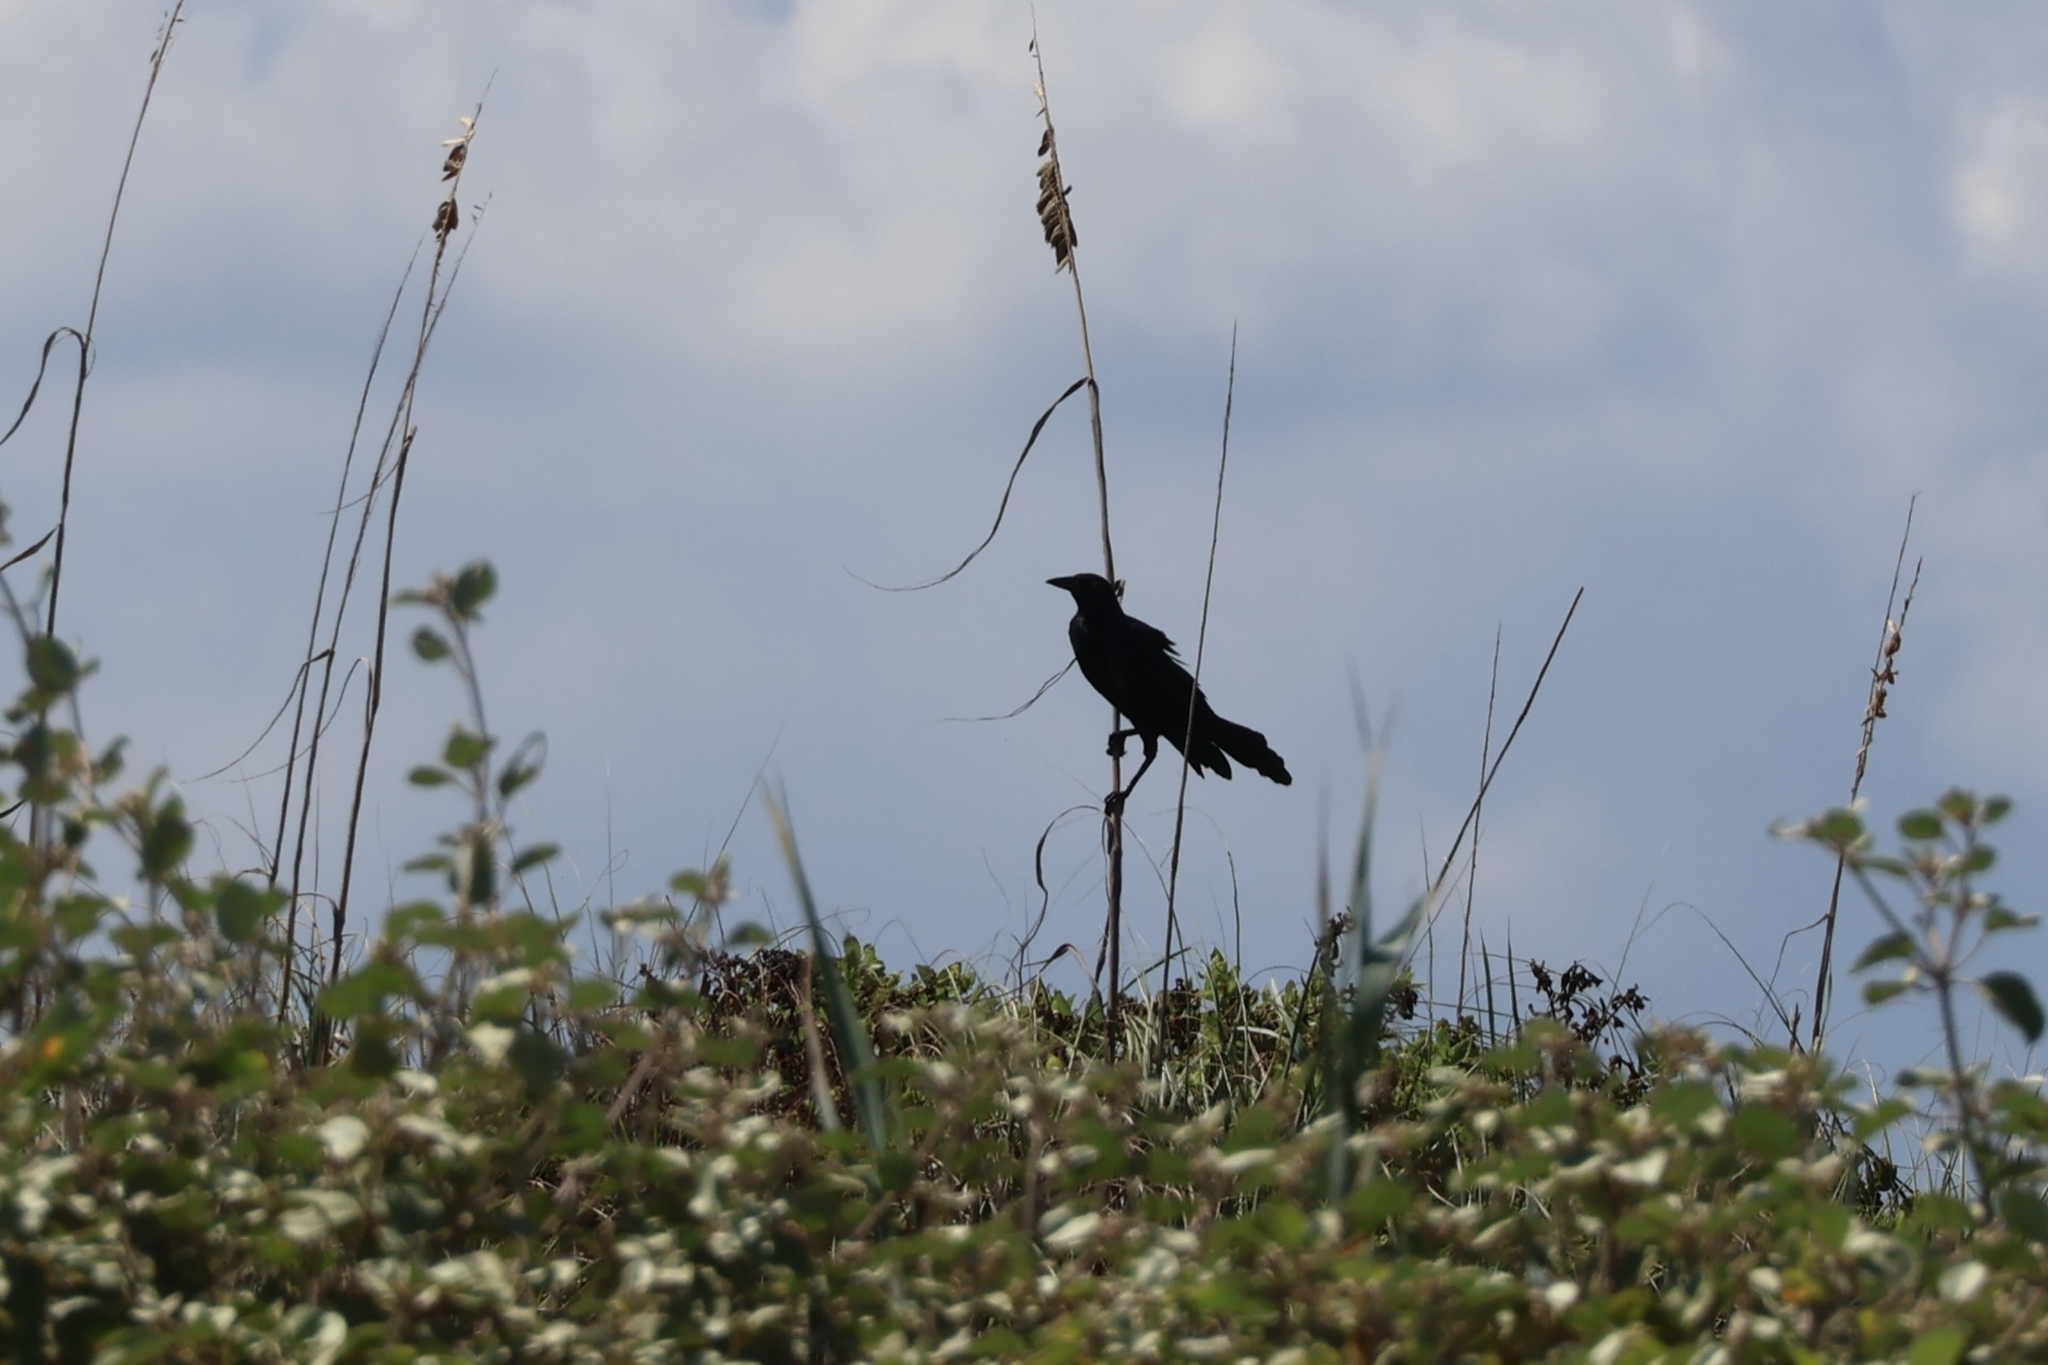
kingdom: Animalia
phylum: Chordata
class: Aves
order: Passeriformes
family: Icteridae
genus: Quiscalus
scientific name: Quiscalus mexicanus
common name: Great-tailed grackle
